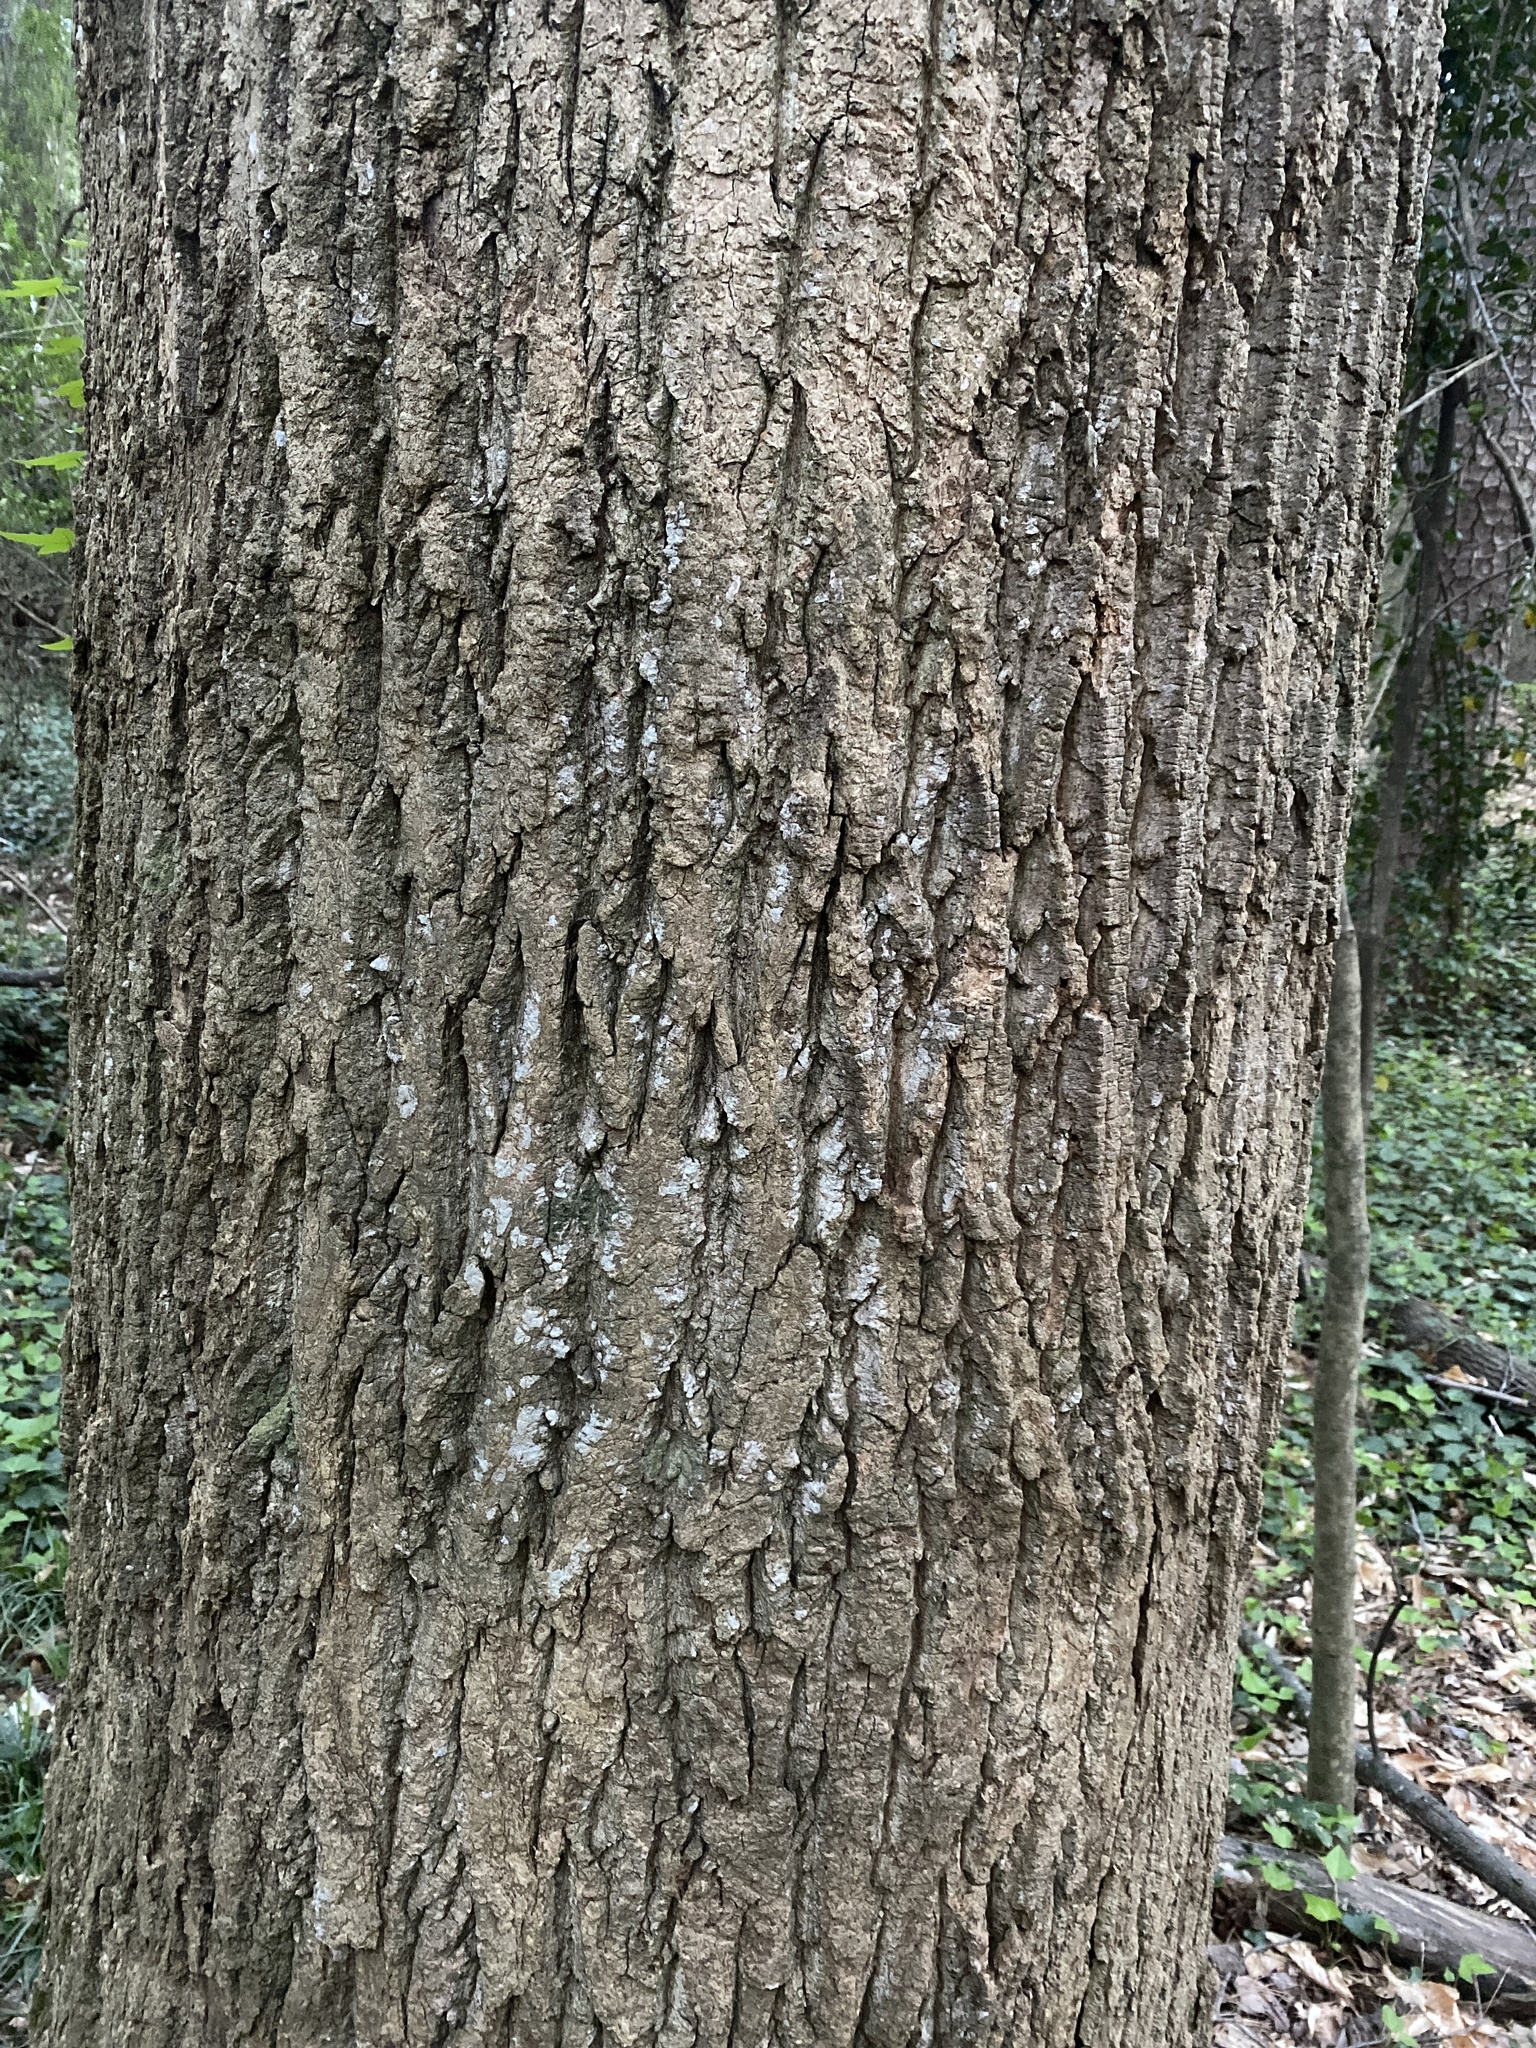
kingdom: Plantae
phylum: Tracheophyta
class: Magnoliopsida
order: Magnoliales
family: Magnoliaceae
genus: Liriodendron
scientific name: Liriodendron tulipifera
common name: Tulip tree
